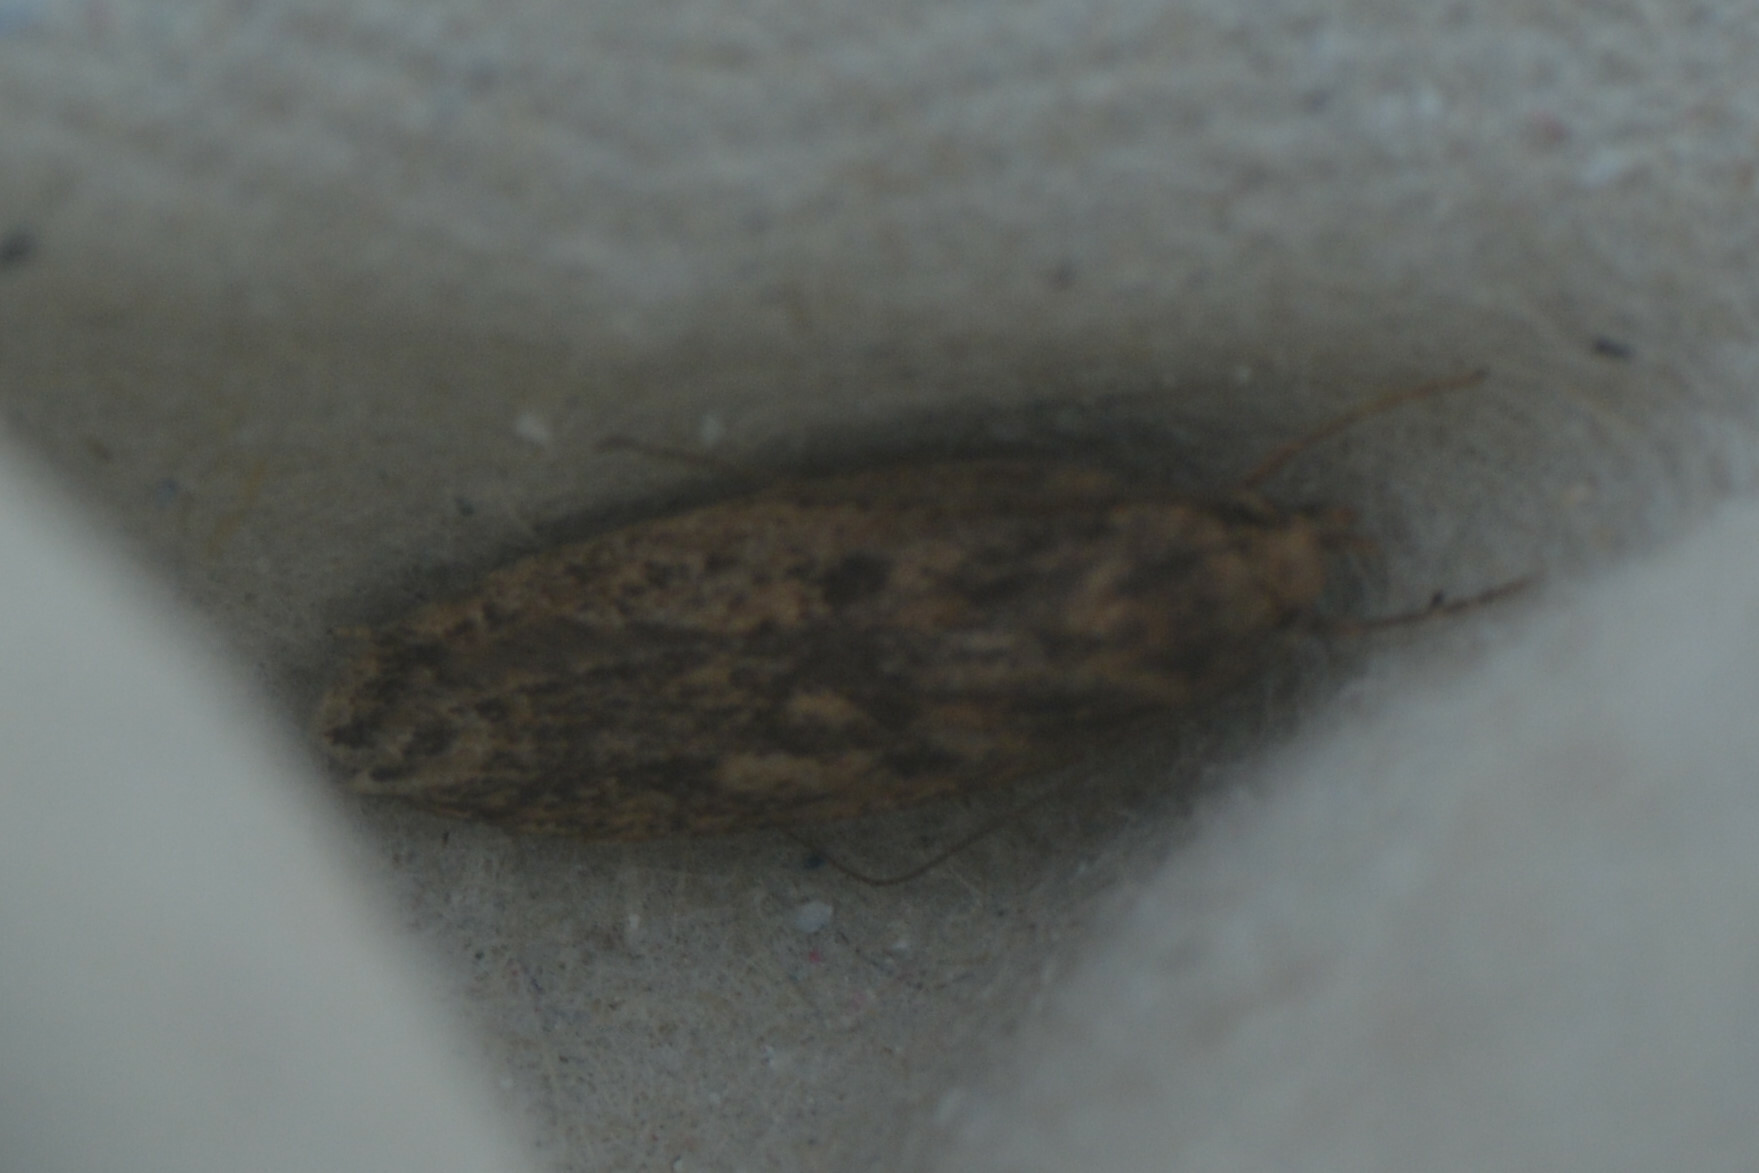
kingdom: Animalia
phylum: Arthropoda
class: Insecta
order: Lepidoptera
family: Oecophoridae
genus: Hofmannophila
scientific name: Hofmannophila pseudospretella
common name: Brown house moth
